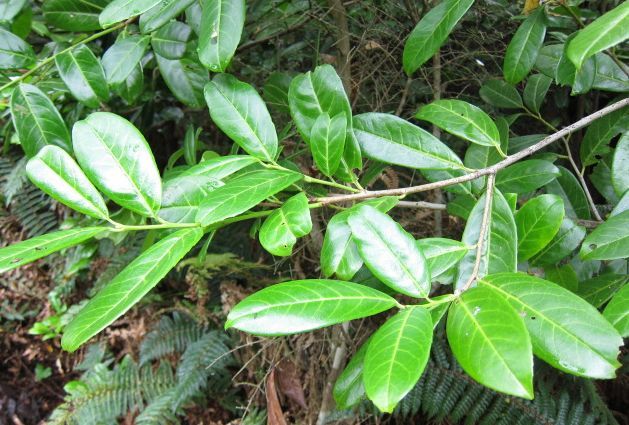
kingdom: Plantae
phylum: Tracheophyta
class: Magnoliopsida
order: Rosales
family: Rosaceae
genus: Prunus
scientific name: Prunus laurocerasus
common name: Cherry laurel
